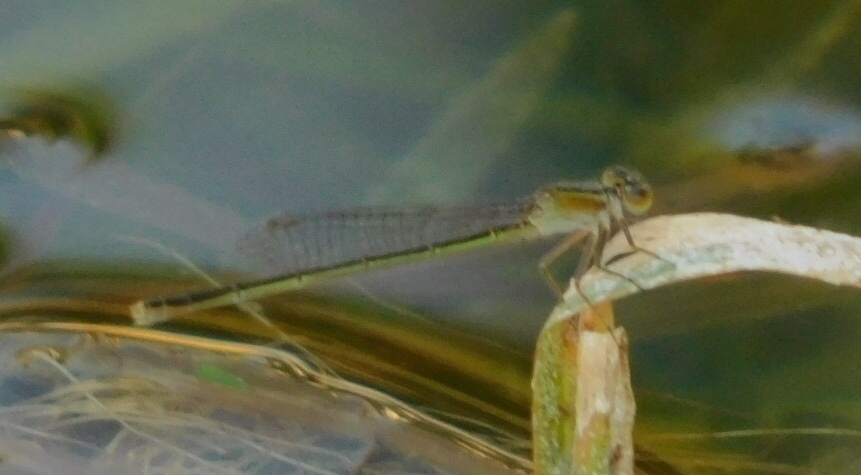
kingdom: Animalia
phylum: Arthropoda
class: Insecta
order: Odonata
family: Coenagrionidae
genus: Ischnura
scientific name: Ischnura ramburii
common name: Rambur's forktail
